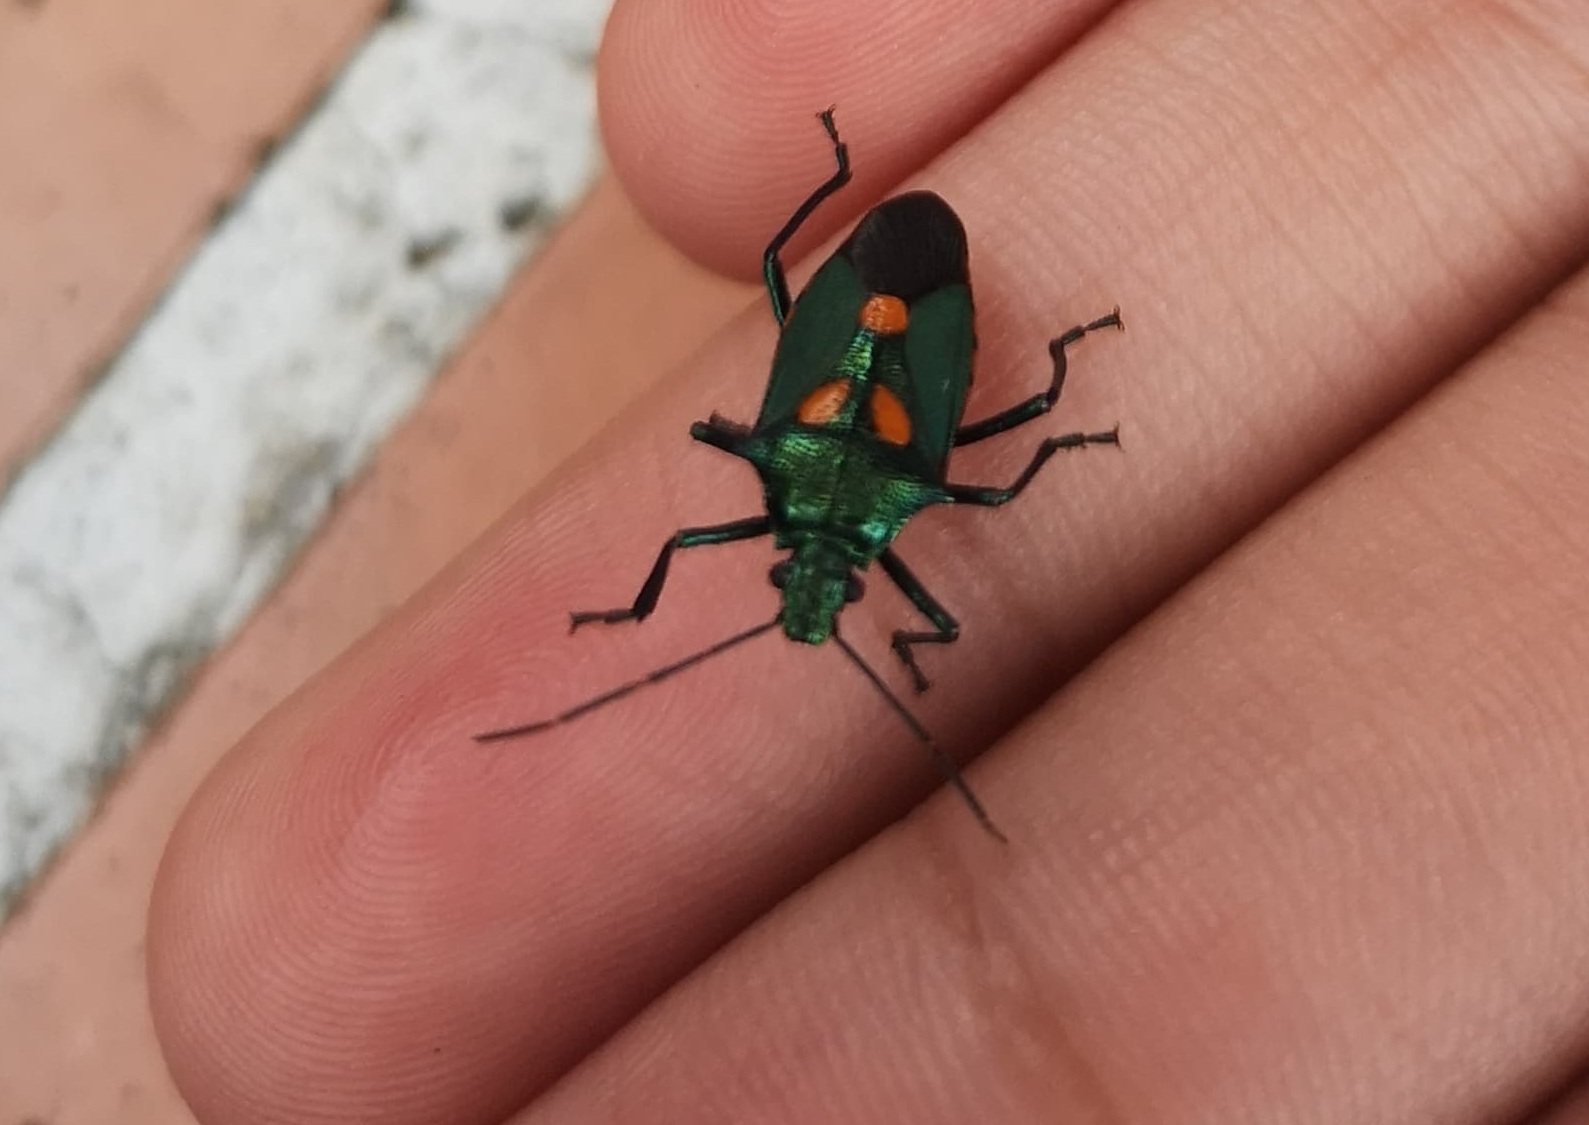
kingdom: Animalia
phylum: Arthropoda
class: Insecta
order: Hemiptera
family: Pentatomidae
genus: Euthyrhynchus
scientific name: Euthyrhynchus floridanus
